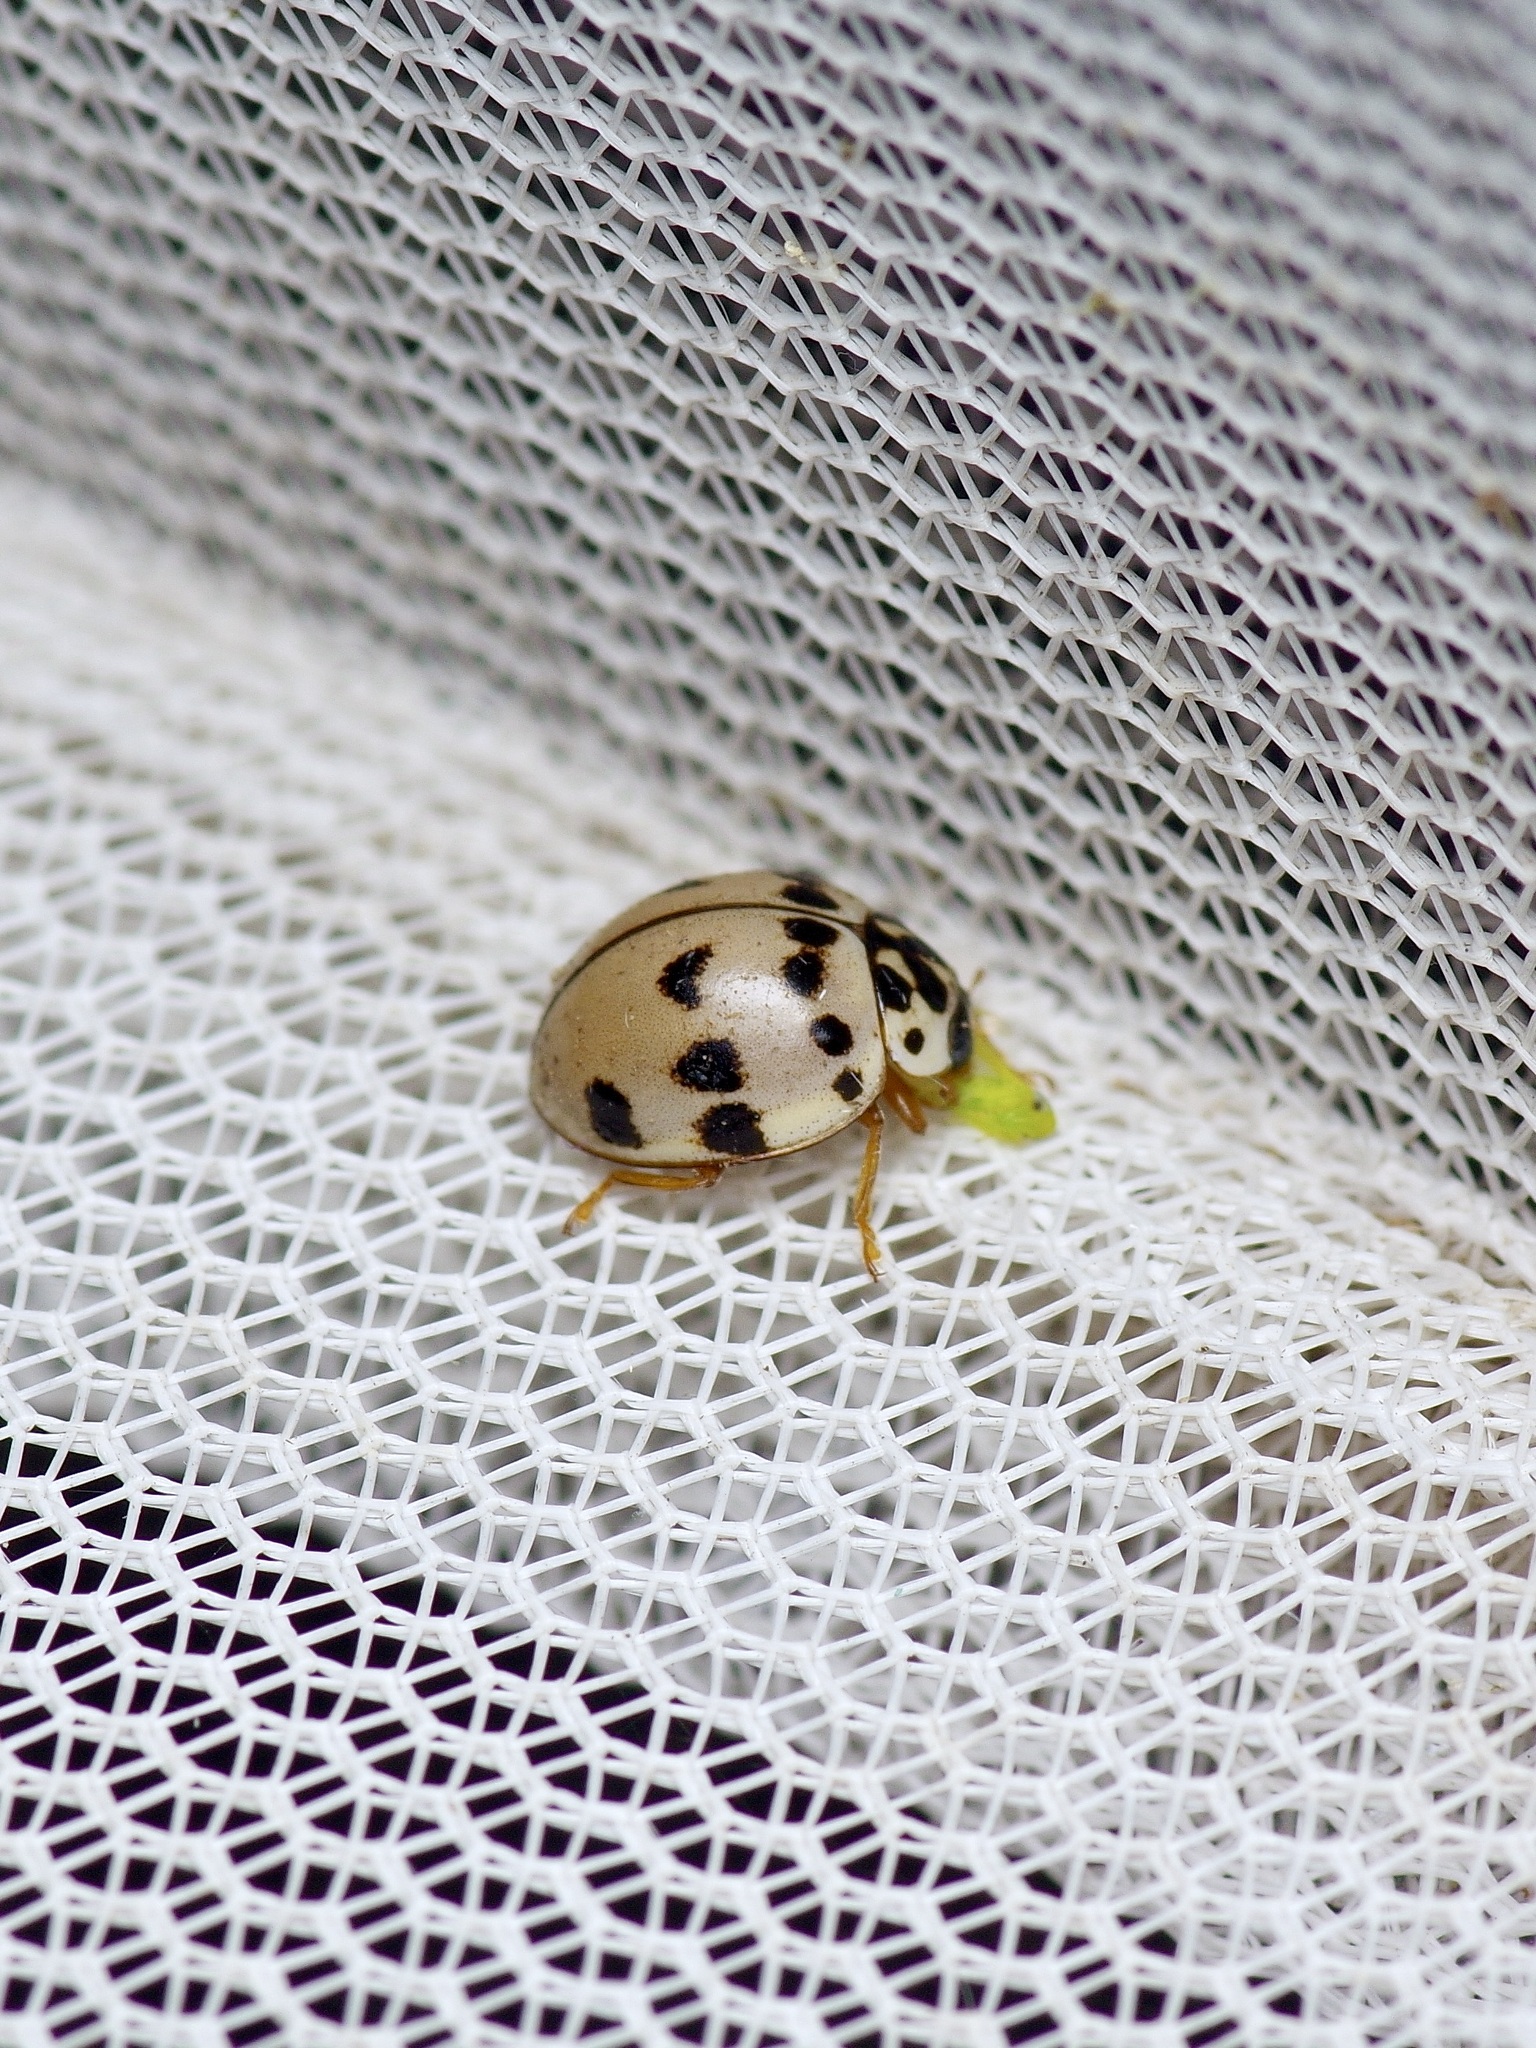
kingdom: Animalia
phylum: Arthropoda
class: Insecta
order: Coleoptera
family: Coccinellidae
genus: Olla
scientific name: Olla v-nigrum
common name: Ashy gray lady beetle
